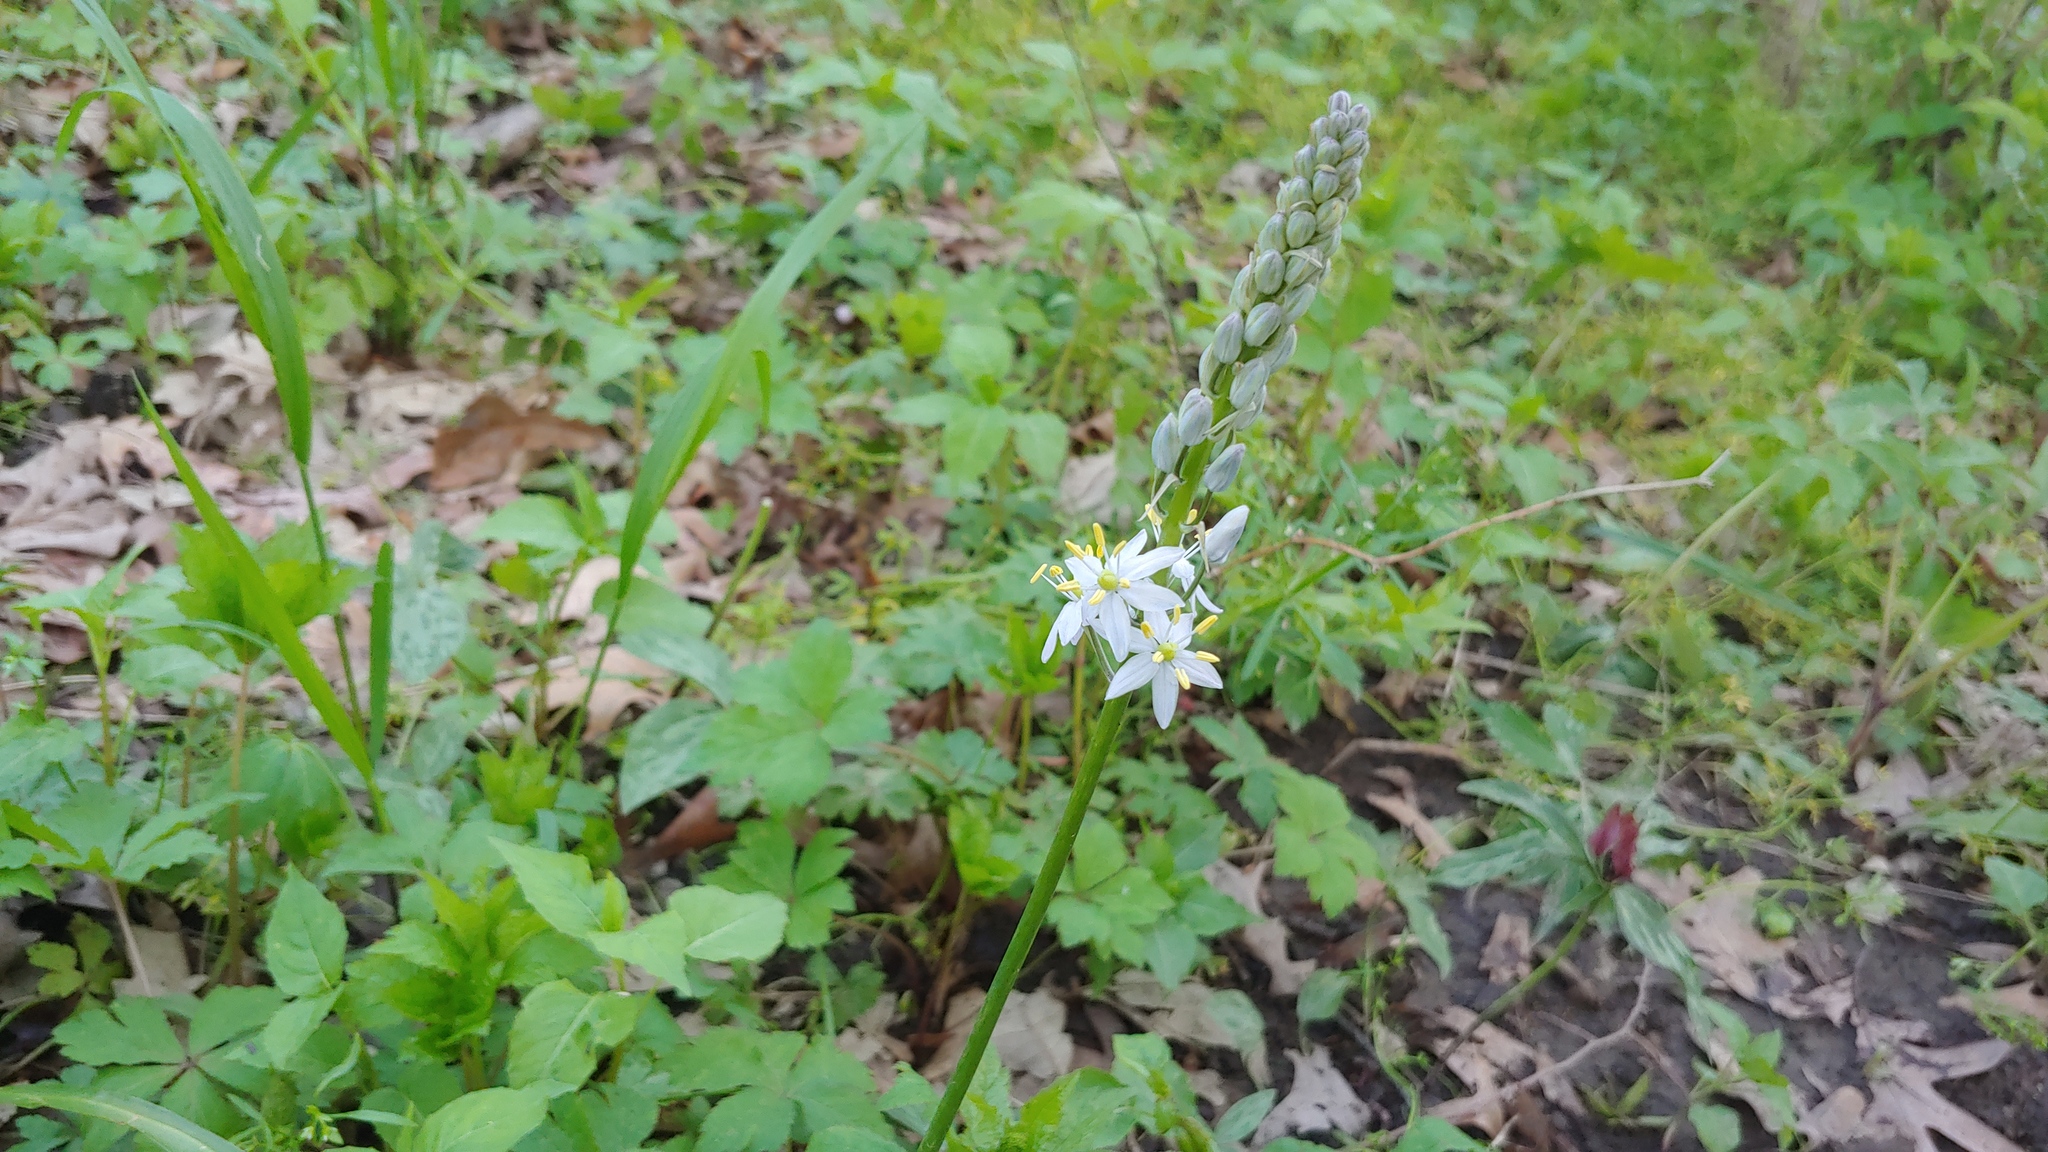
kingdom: Plantae
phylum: Tracheophyta
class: Liliopsida
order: Asparagales
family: Asparagaceae
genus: Camassia
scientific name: Camassia scilloides
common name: Wild hyacinth
